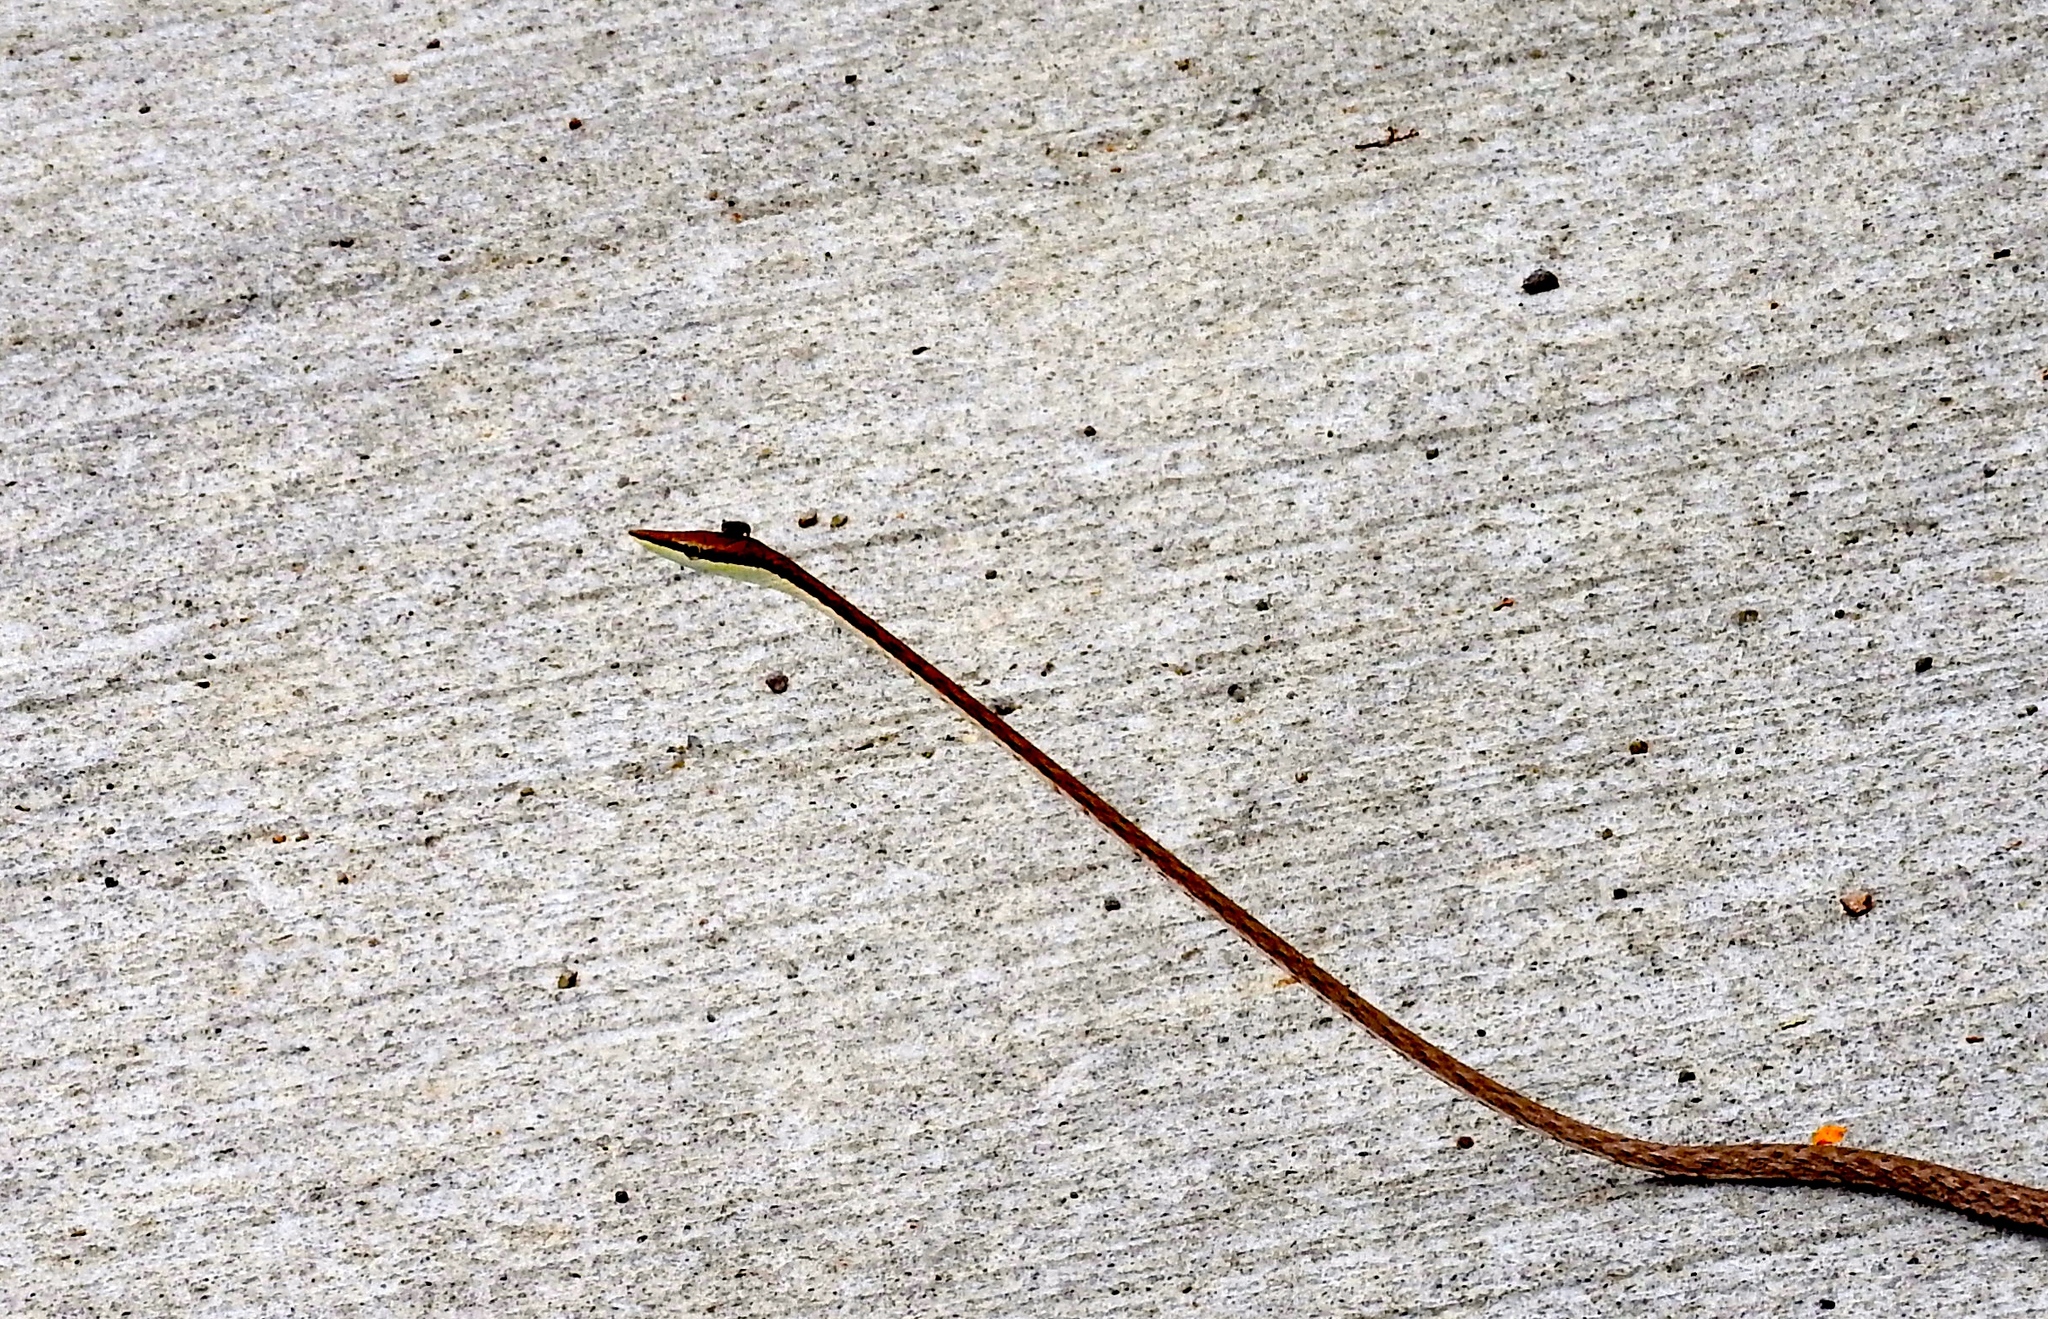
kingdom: Animalia
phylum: Chordata
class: Squamata
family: Colubridae
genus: Oxybelis
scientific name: Oxybelis microphthalmus
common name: Thrornscrub vine snake
